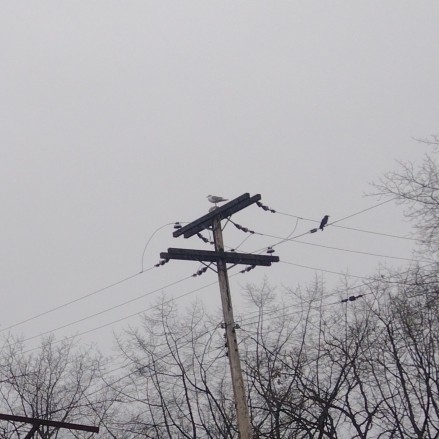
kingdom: Animalia
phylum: Chordata
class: Aves
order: Passeriformes
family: Corvidae
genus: Corvus
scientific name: Corvus brachyrhynchos
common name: American crow
